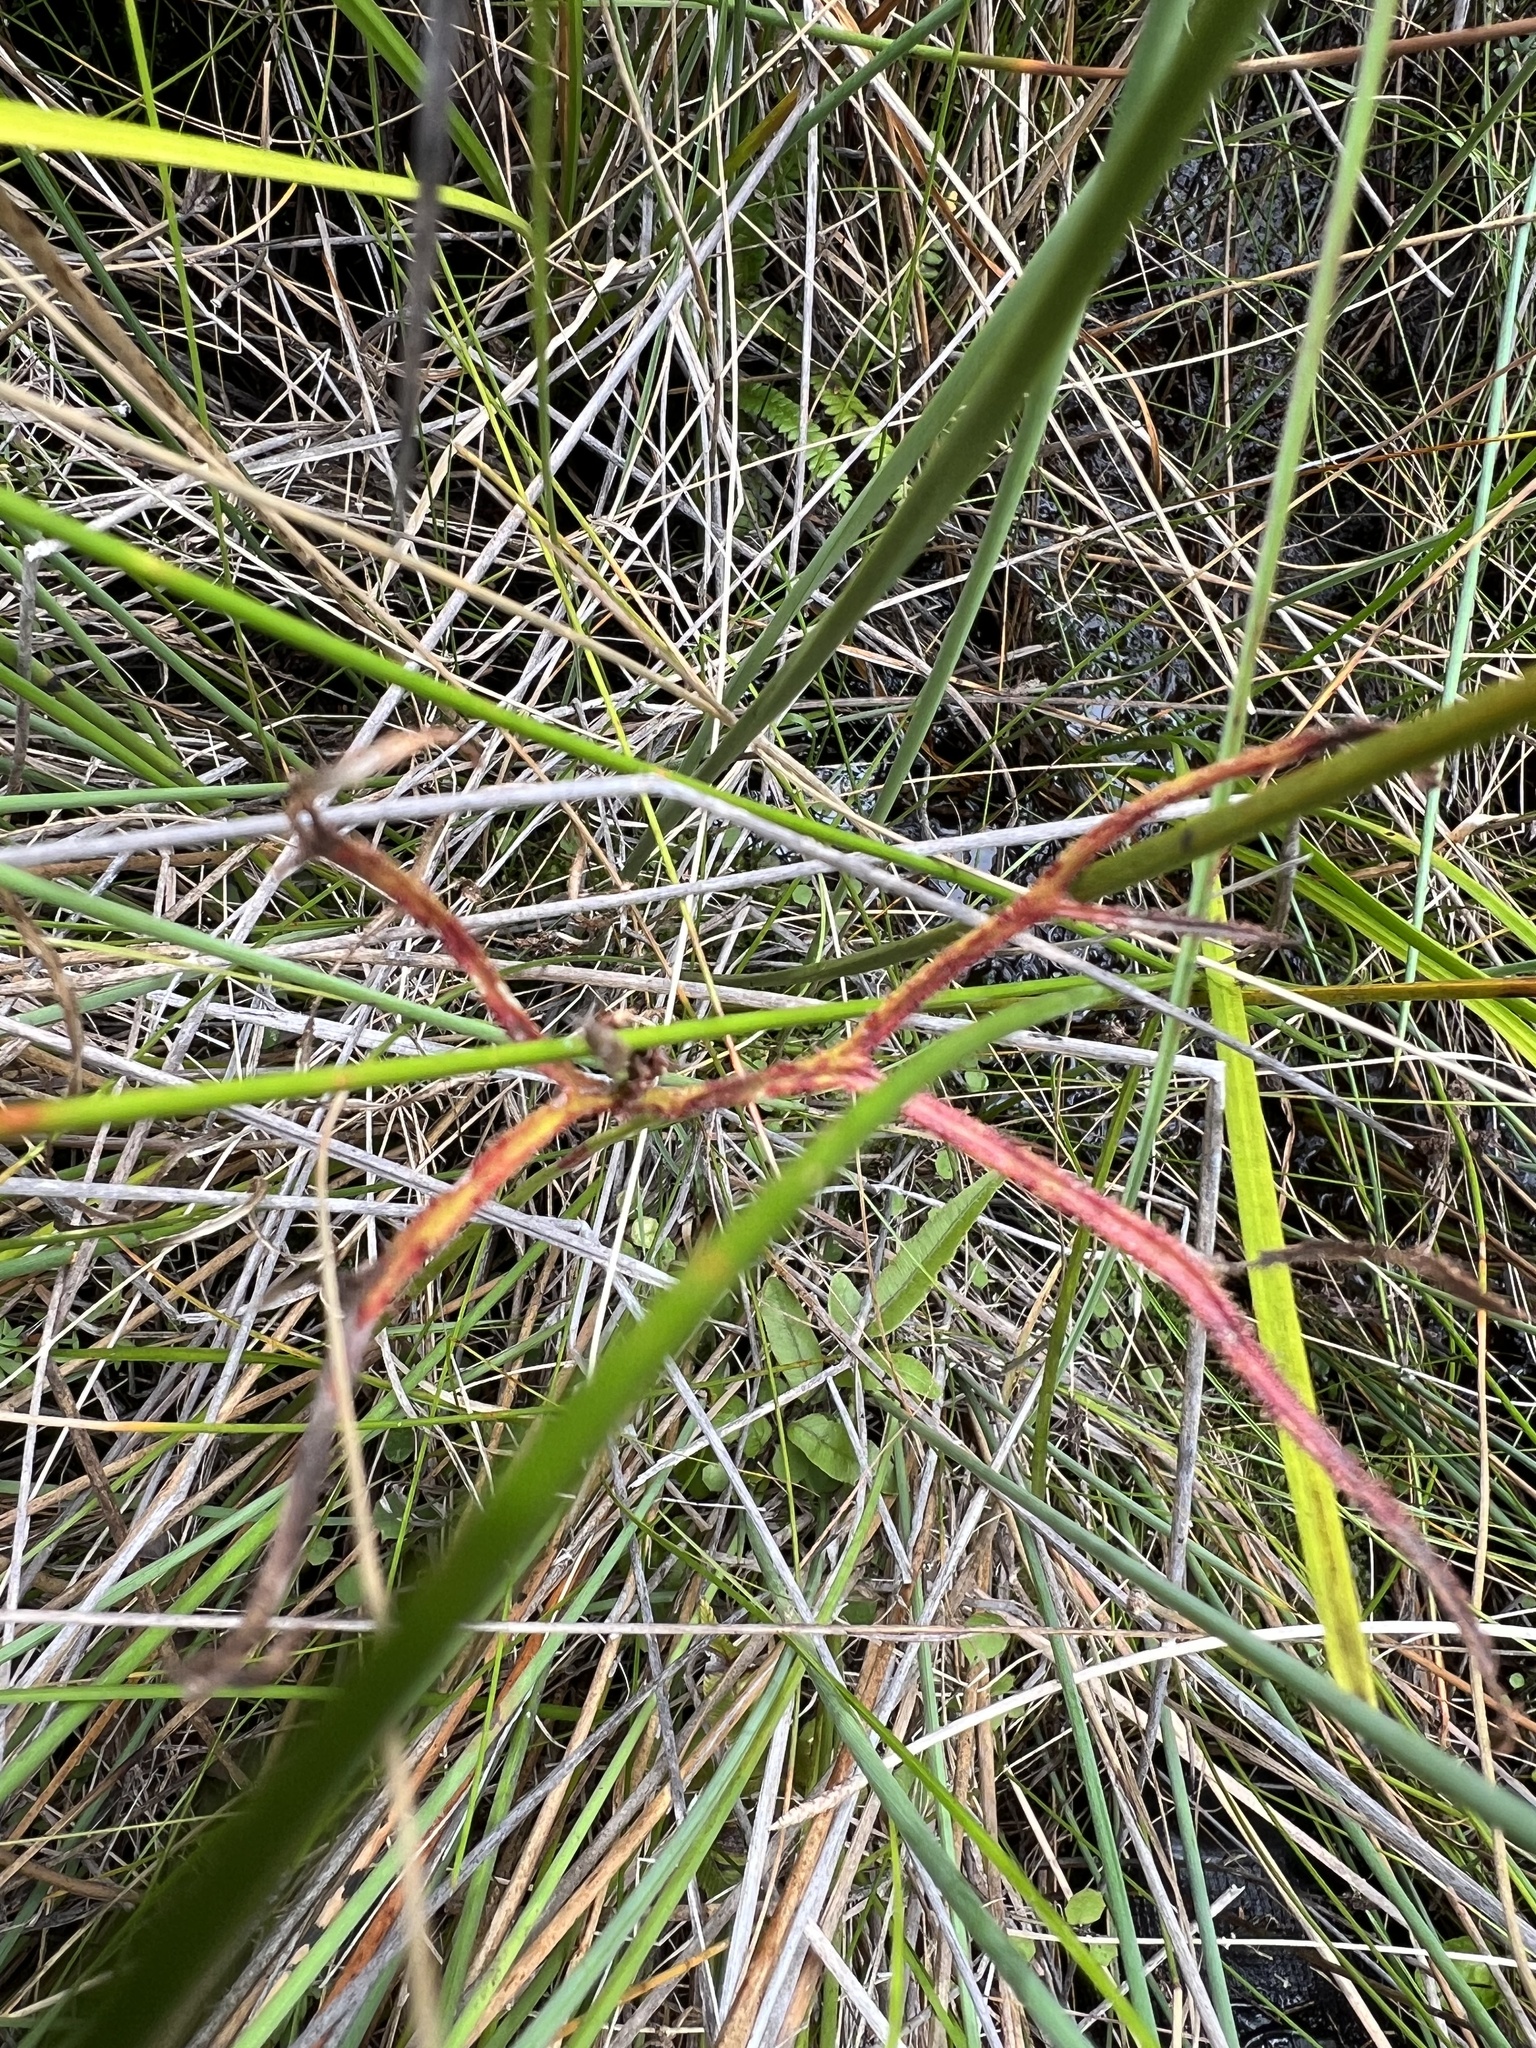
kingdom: Plantae
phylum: Tracheophyta
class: Magnoliopsida
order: Caryophyllales
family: Droseraceae
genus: Drosera
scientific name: Drosera binata
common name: Forked sundew
